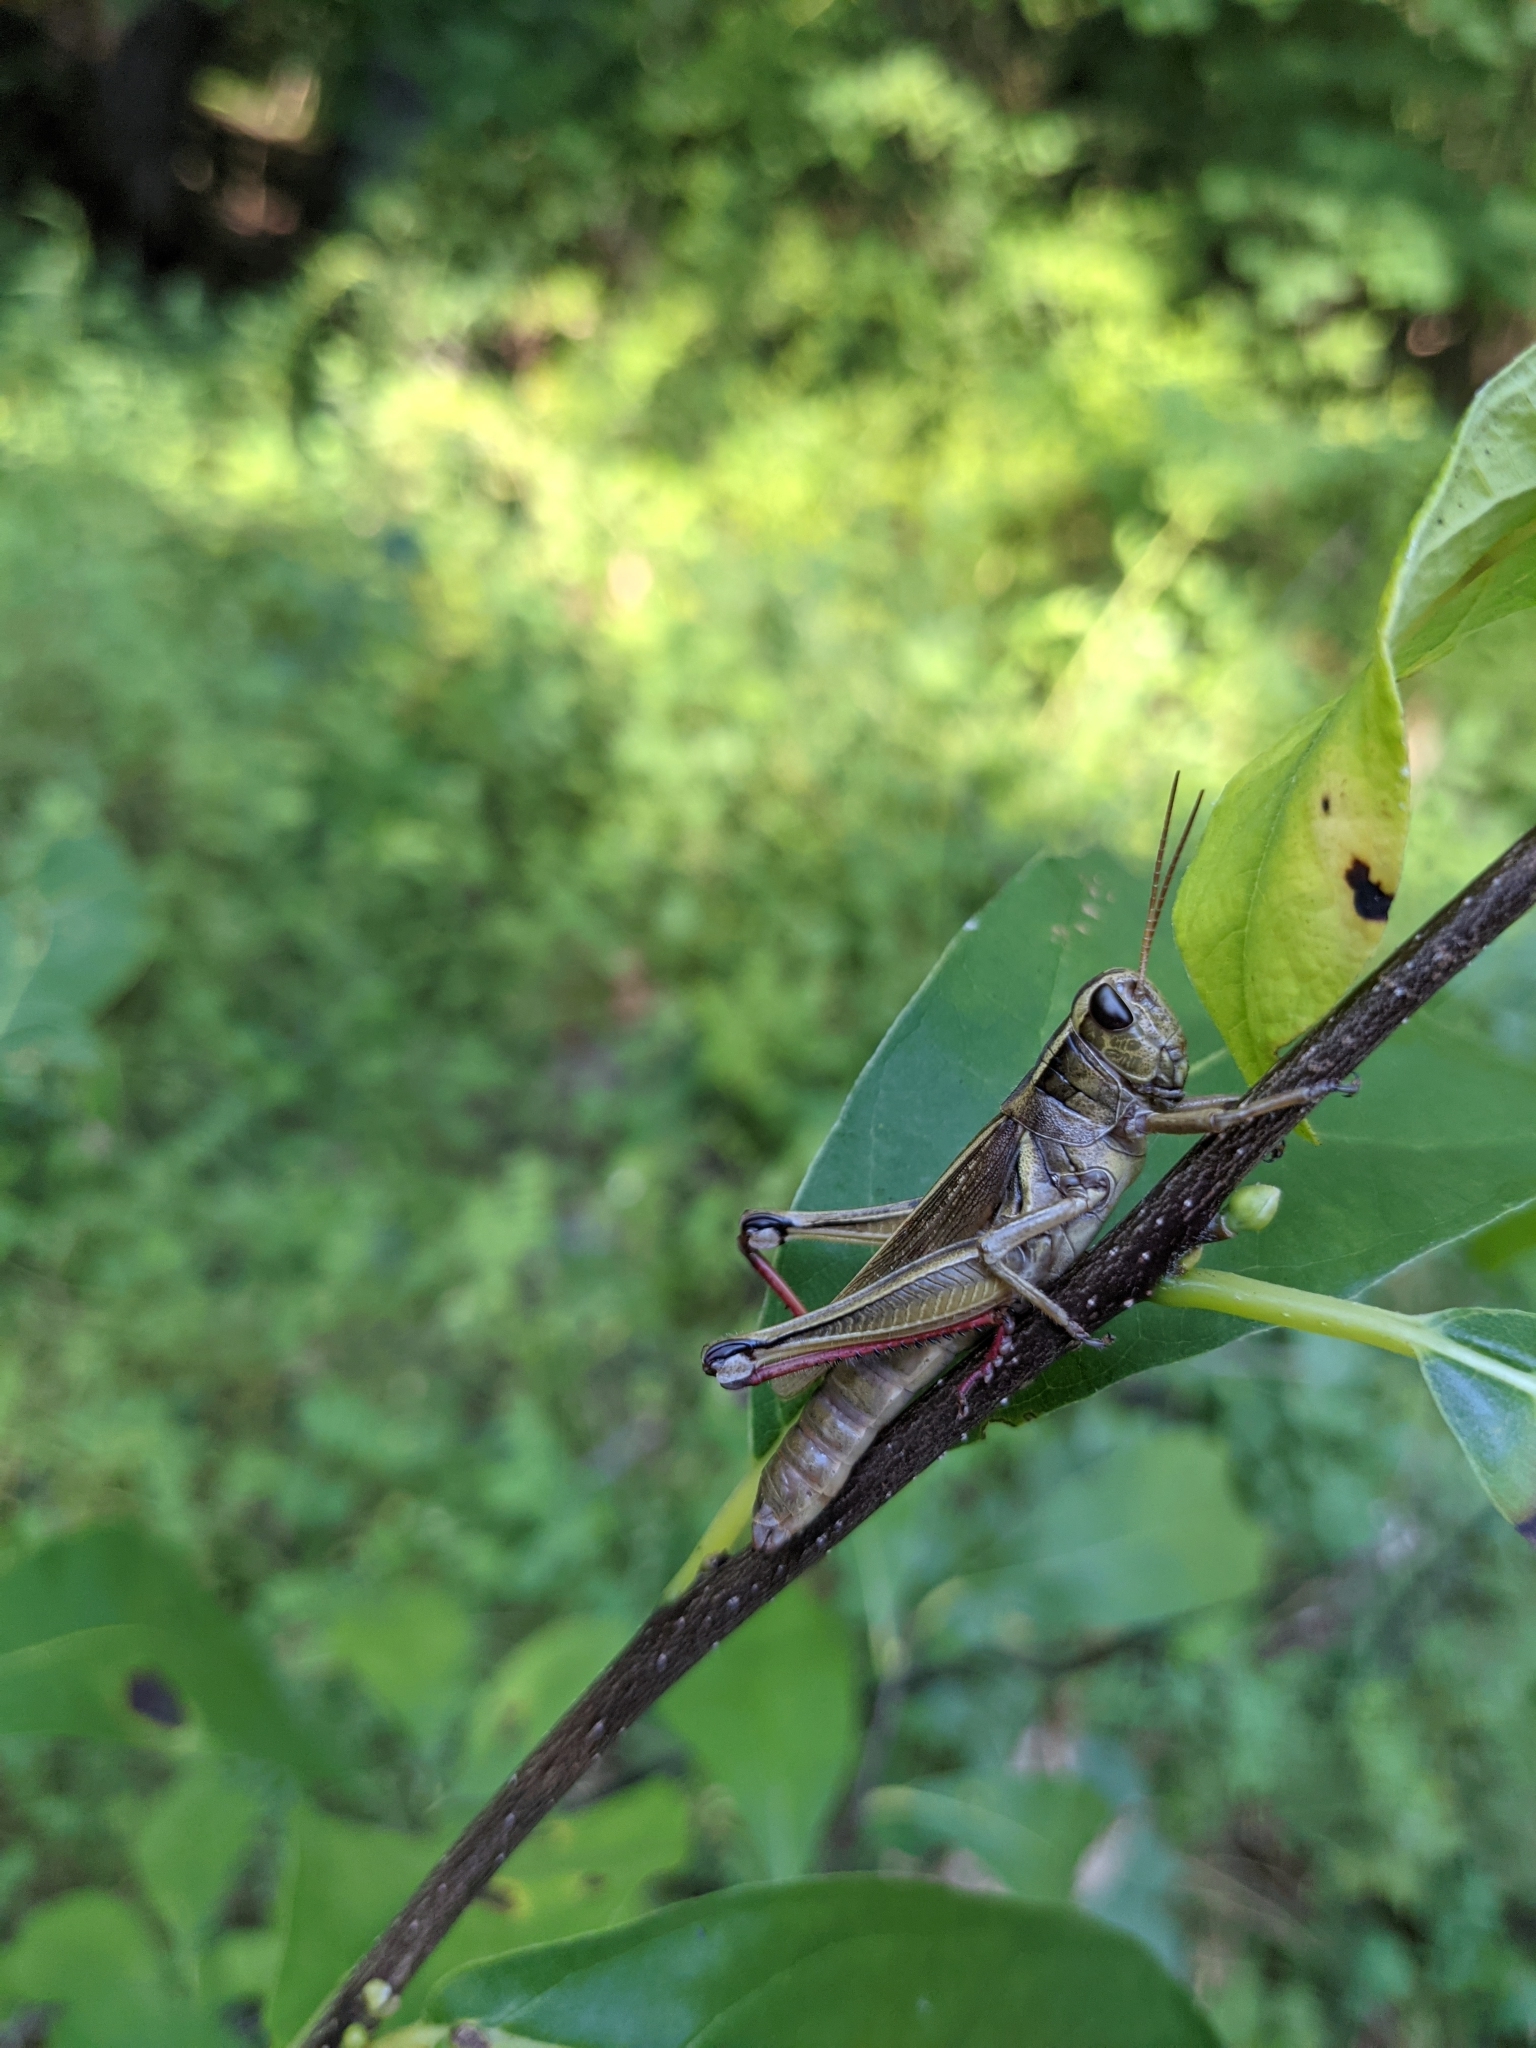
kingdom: Animalia
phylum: Arthropoda
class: Insecta
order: Orthoptera
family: Acrididae
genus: Melanoplus
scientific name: Melanoplus bivittatus
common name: Two-striped grasshopper
